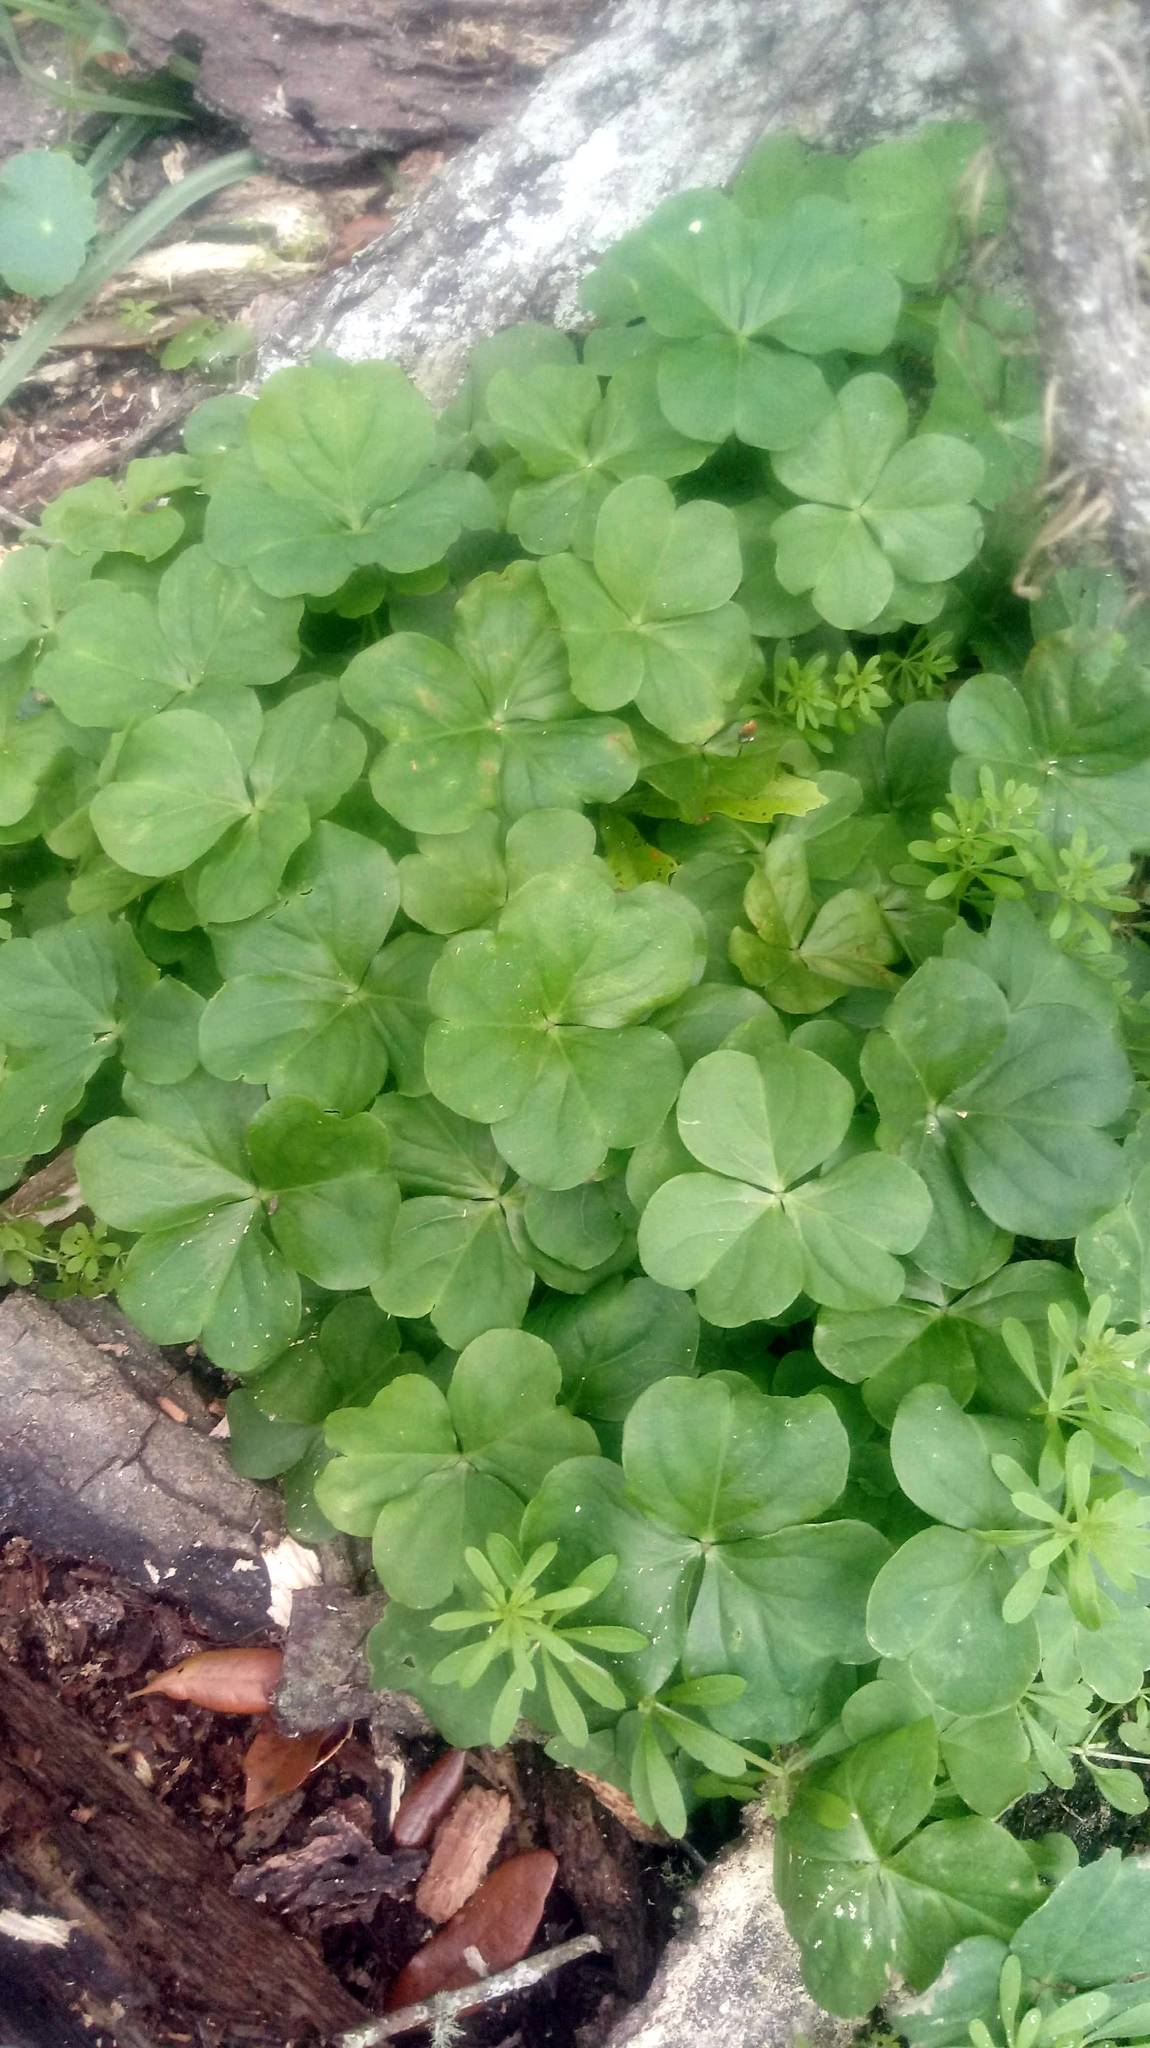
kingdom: Plantae
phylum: Tracheophyta
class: Magnoliopsida
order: Oxalidales
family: Oxalidaceae
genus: Oxalis
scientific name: Oxalis debilis
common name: Large-flowered pink-sorrel
